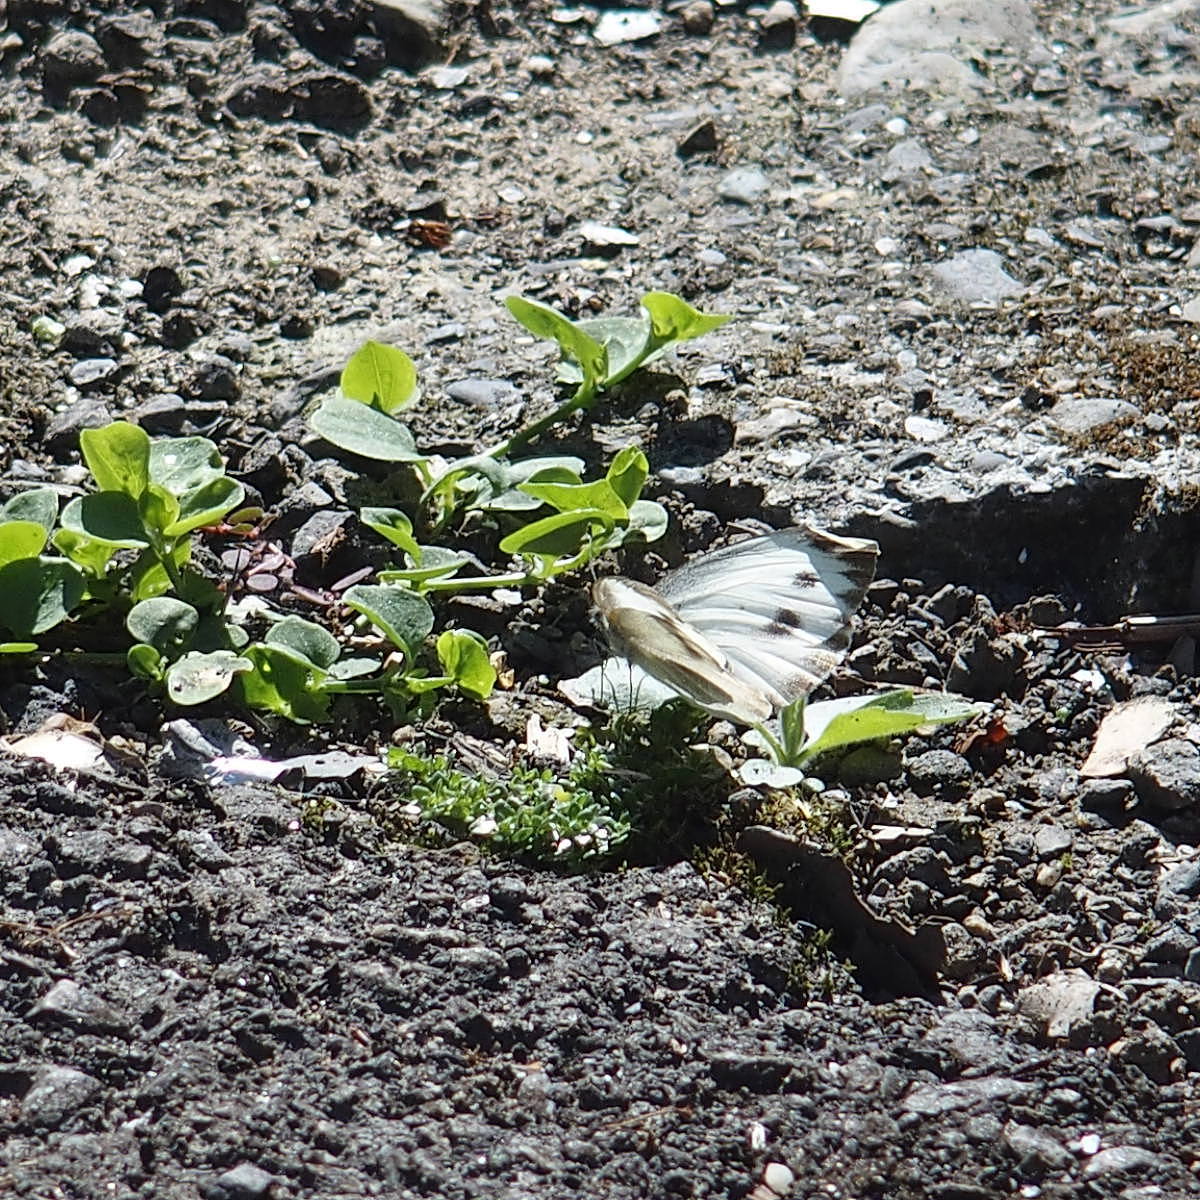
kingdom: Animalia
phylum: Arthropoda
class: Insecta
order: Lepidoptera
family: Pieridae
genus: Pieris
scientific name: Pieris canidia
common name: Indian cabbage white
